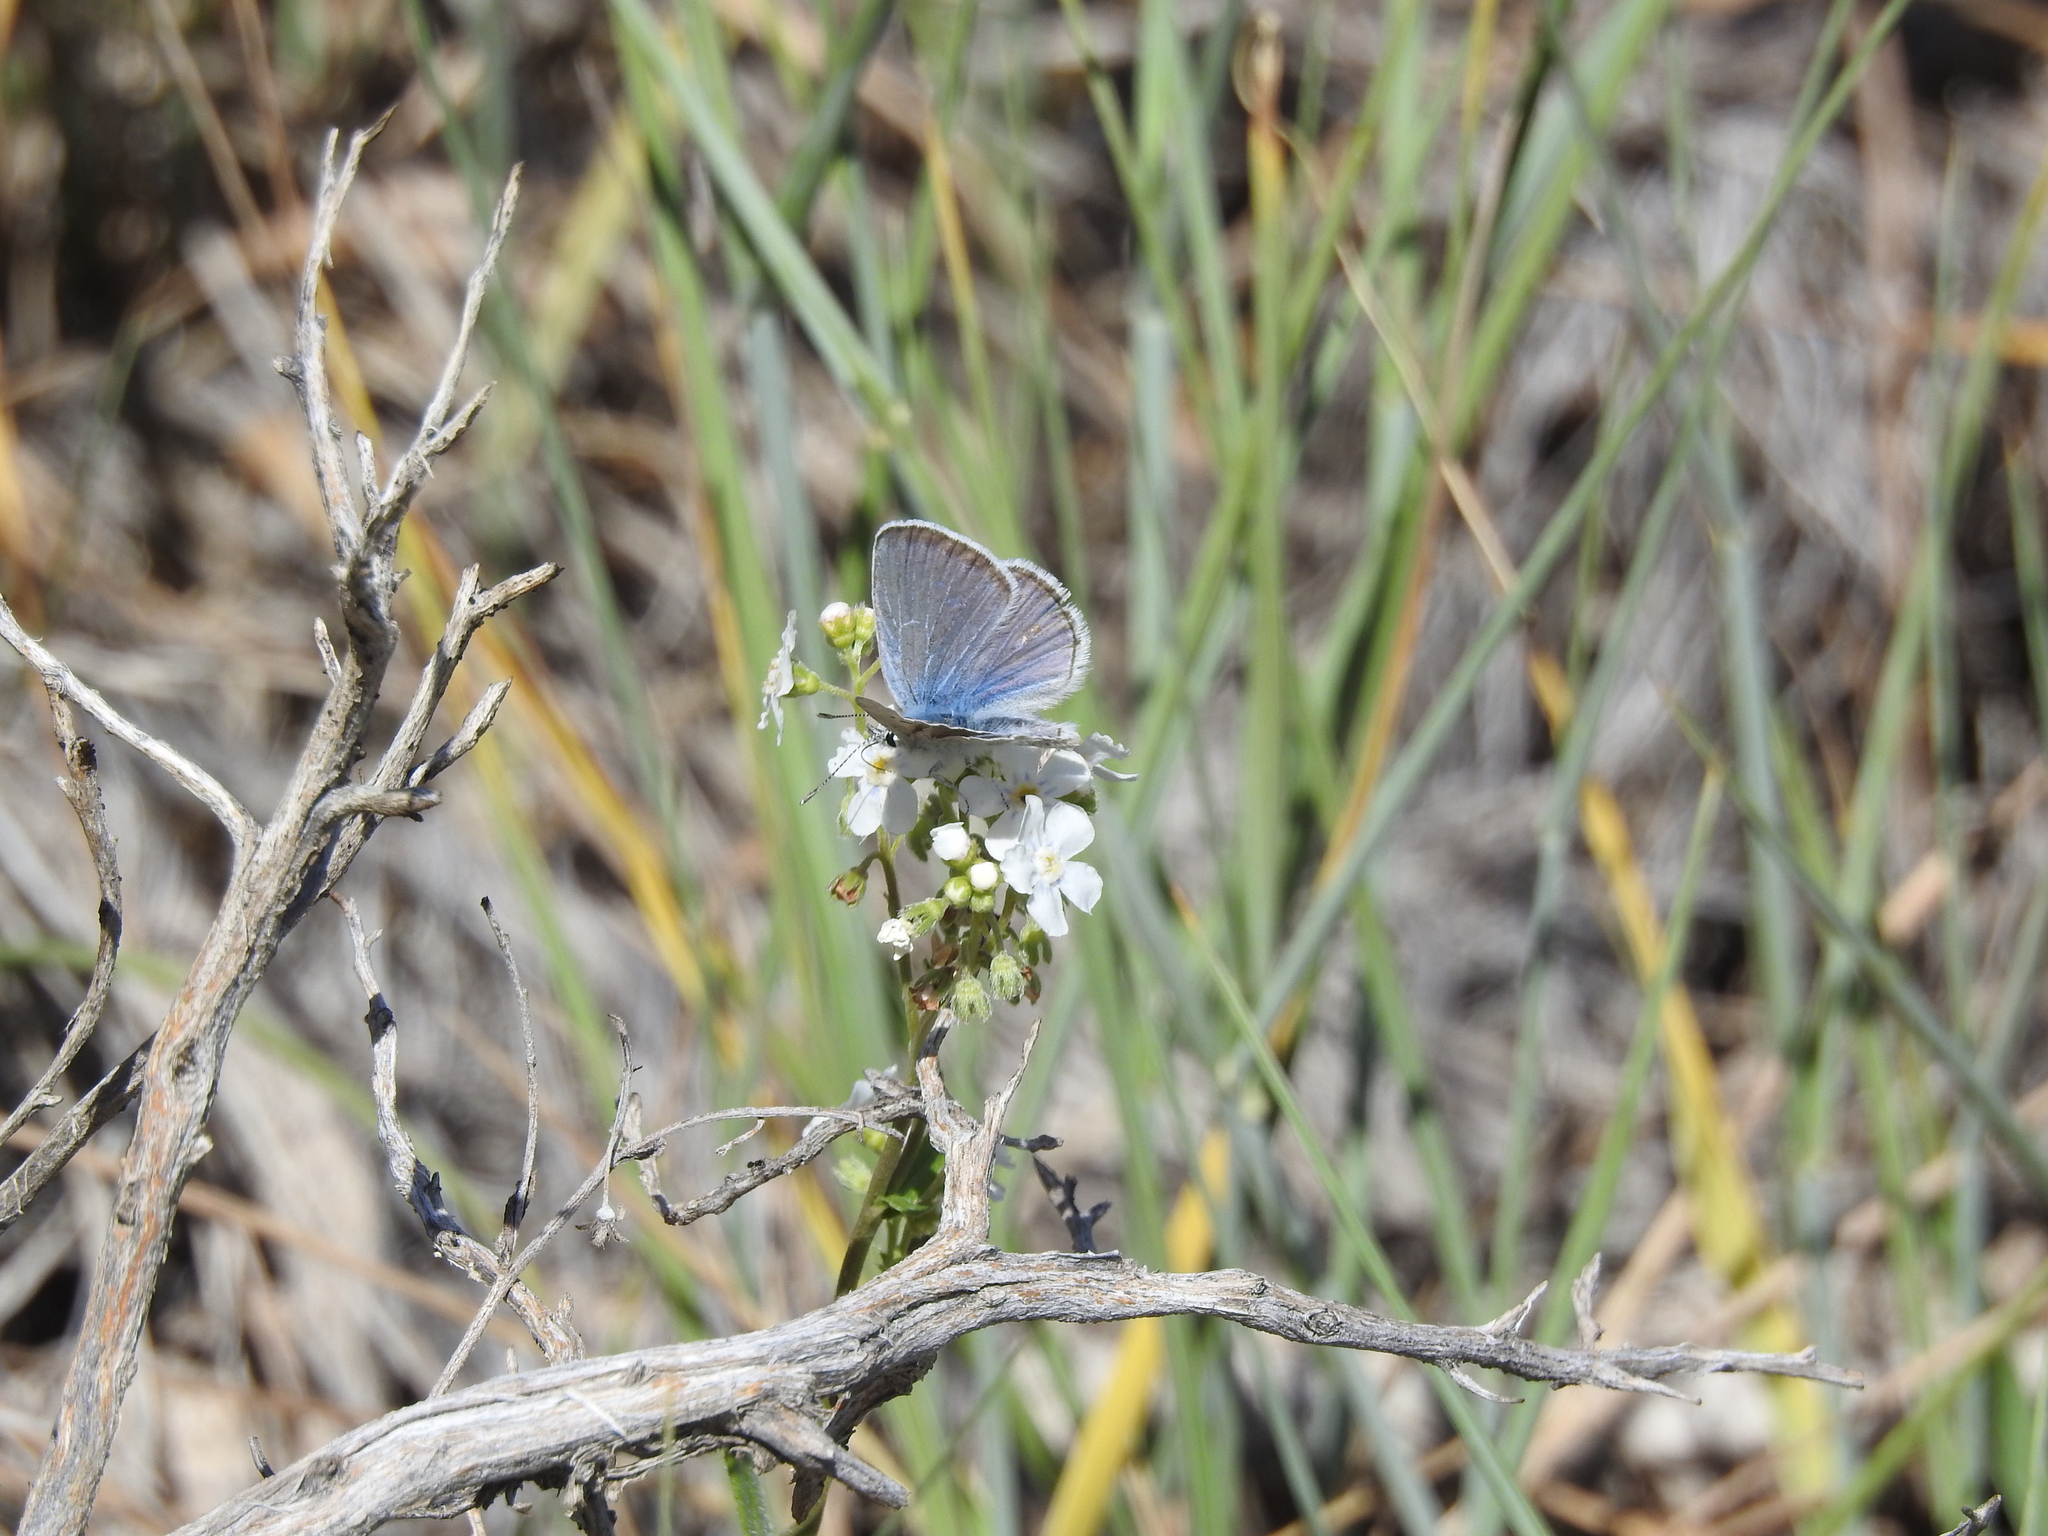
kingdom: Animalia
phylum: Arthropoda
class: Insecta
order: Lepidoptera
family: Lycaenidae
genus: Icaricia
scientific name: Icaricia icarioides
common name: Boisduval's blue
